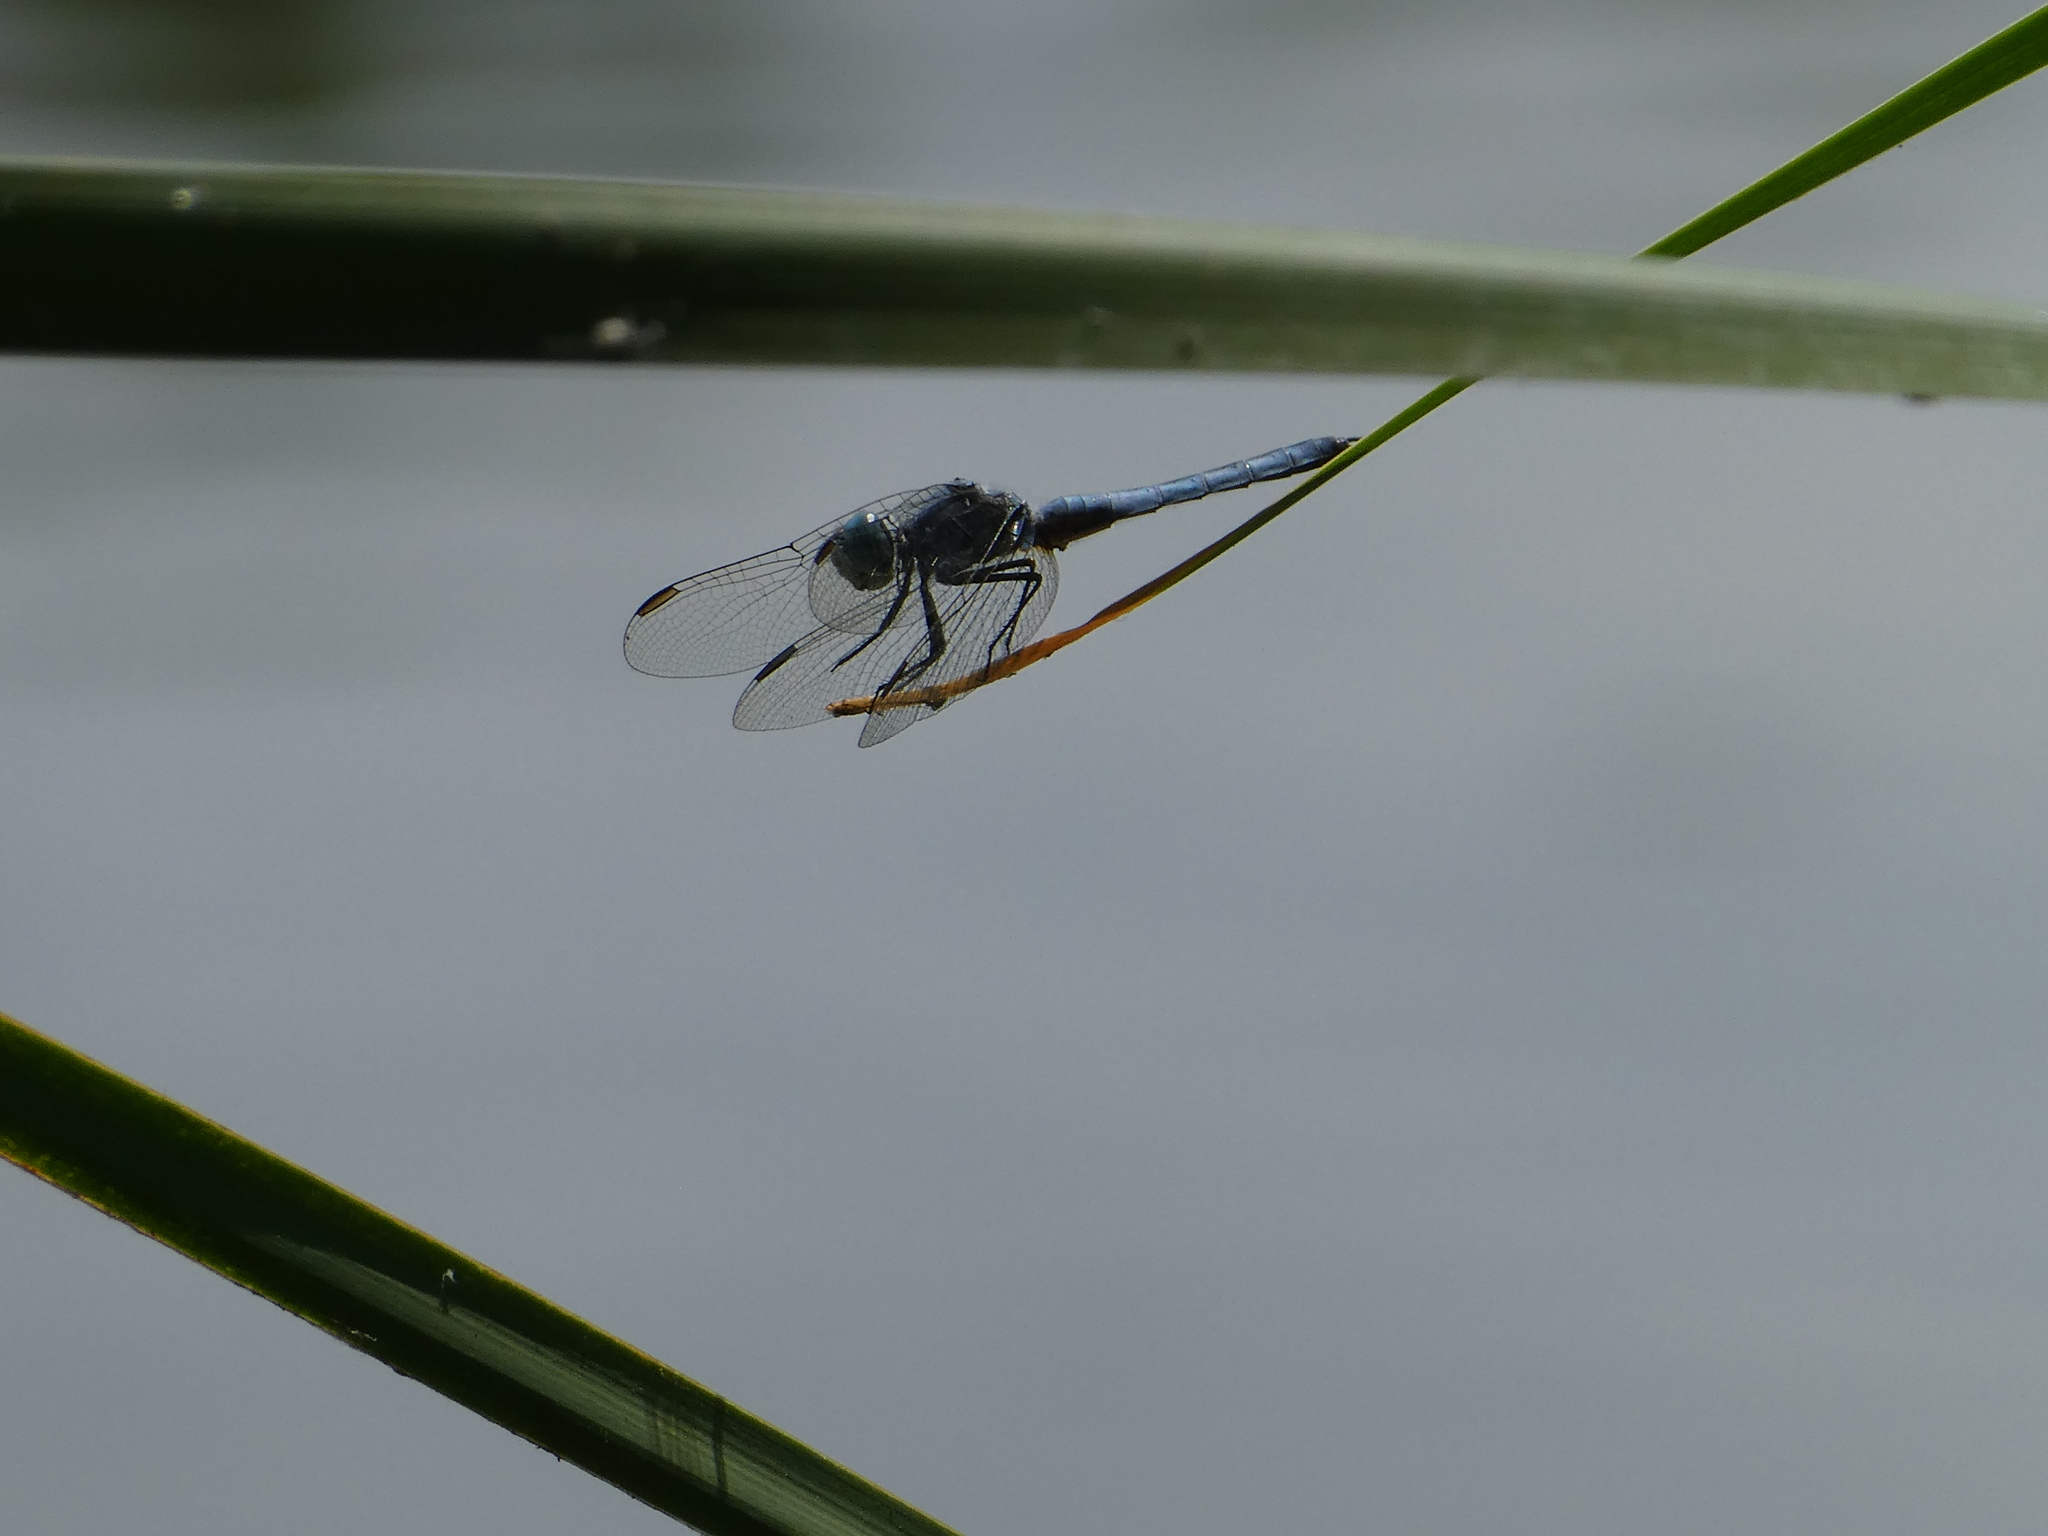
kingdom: Animalia
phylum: Arthropoda
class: Insecta
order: Odonata
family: Libellulidae
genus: Pachydiplax
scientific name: Pachydiplax longipennis
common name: Blue dasher
